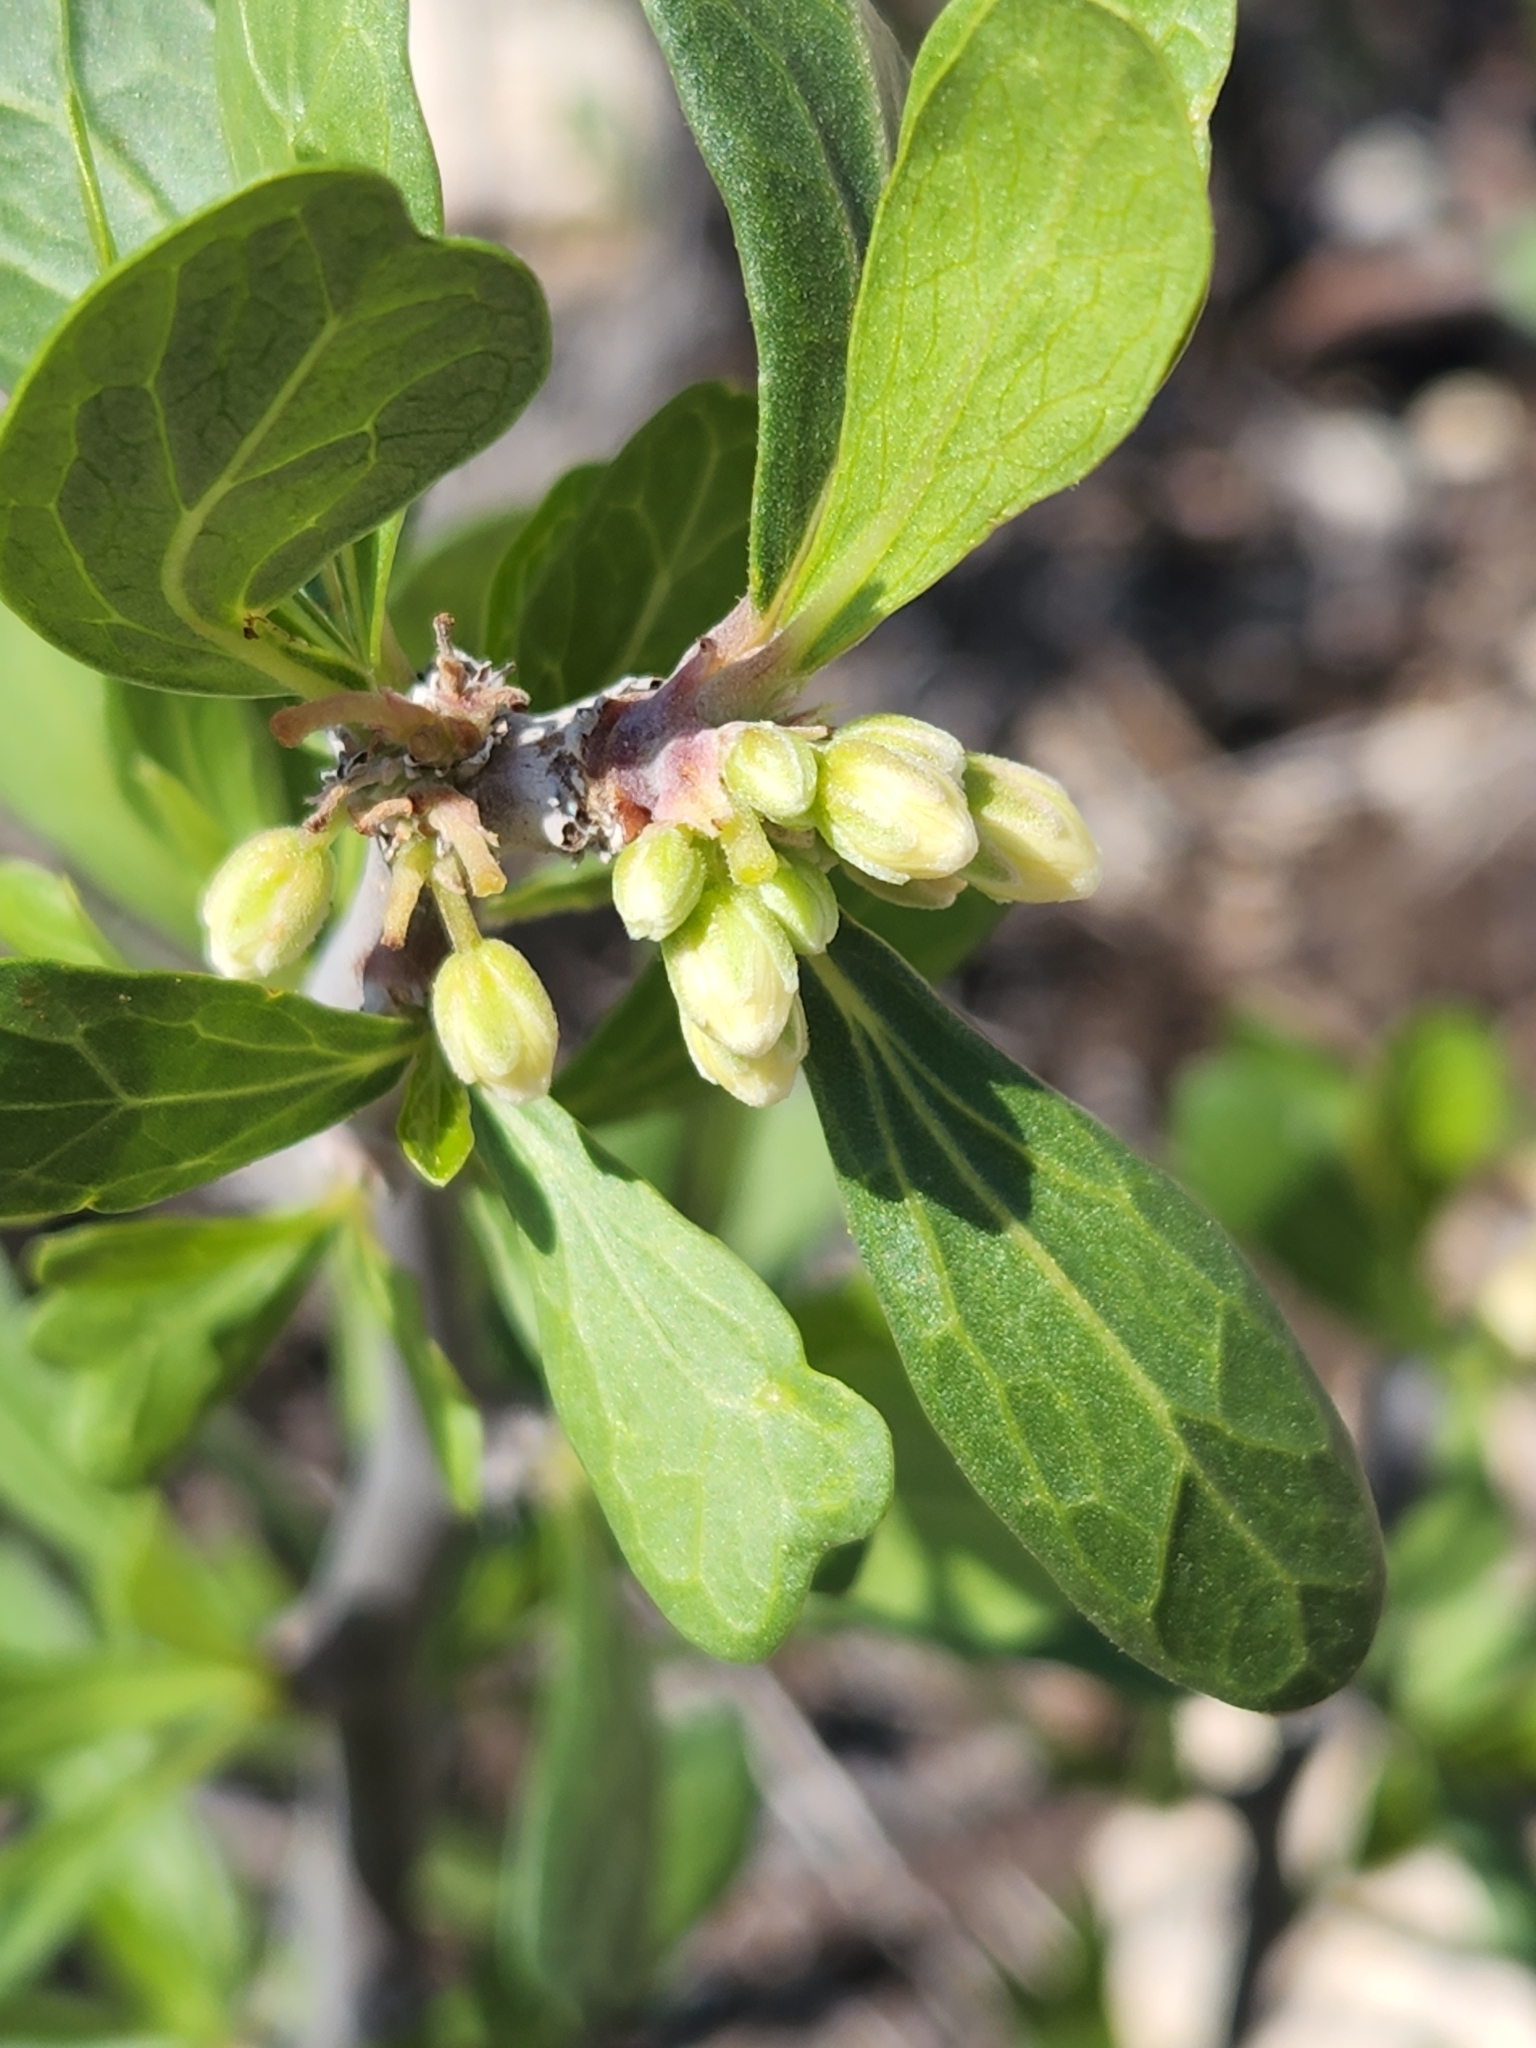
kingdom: Plantae
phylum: Tracheophyta
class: Magnoliopsida
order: Malpighiales
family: Euphorbiaceae
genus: Jatropha
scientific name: Jatropha dioica
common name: Leatherstem
